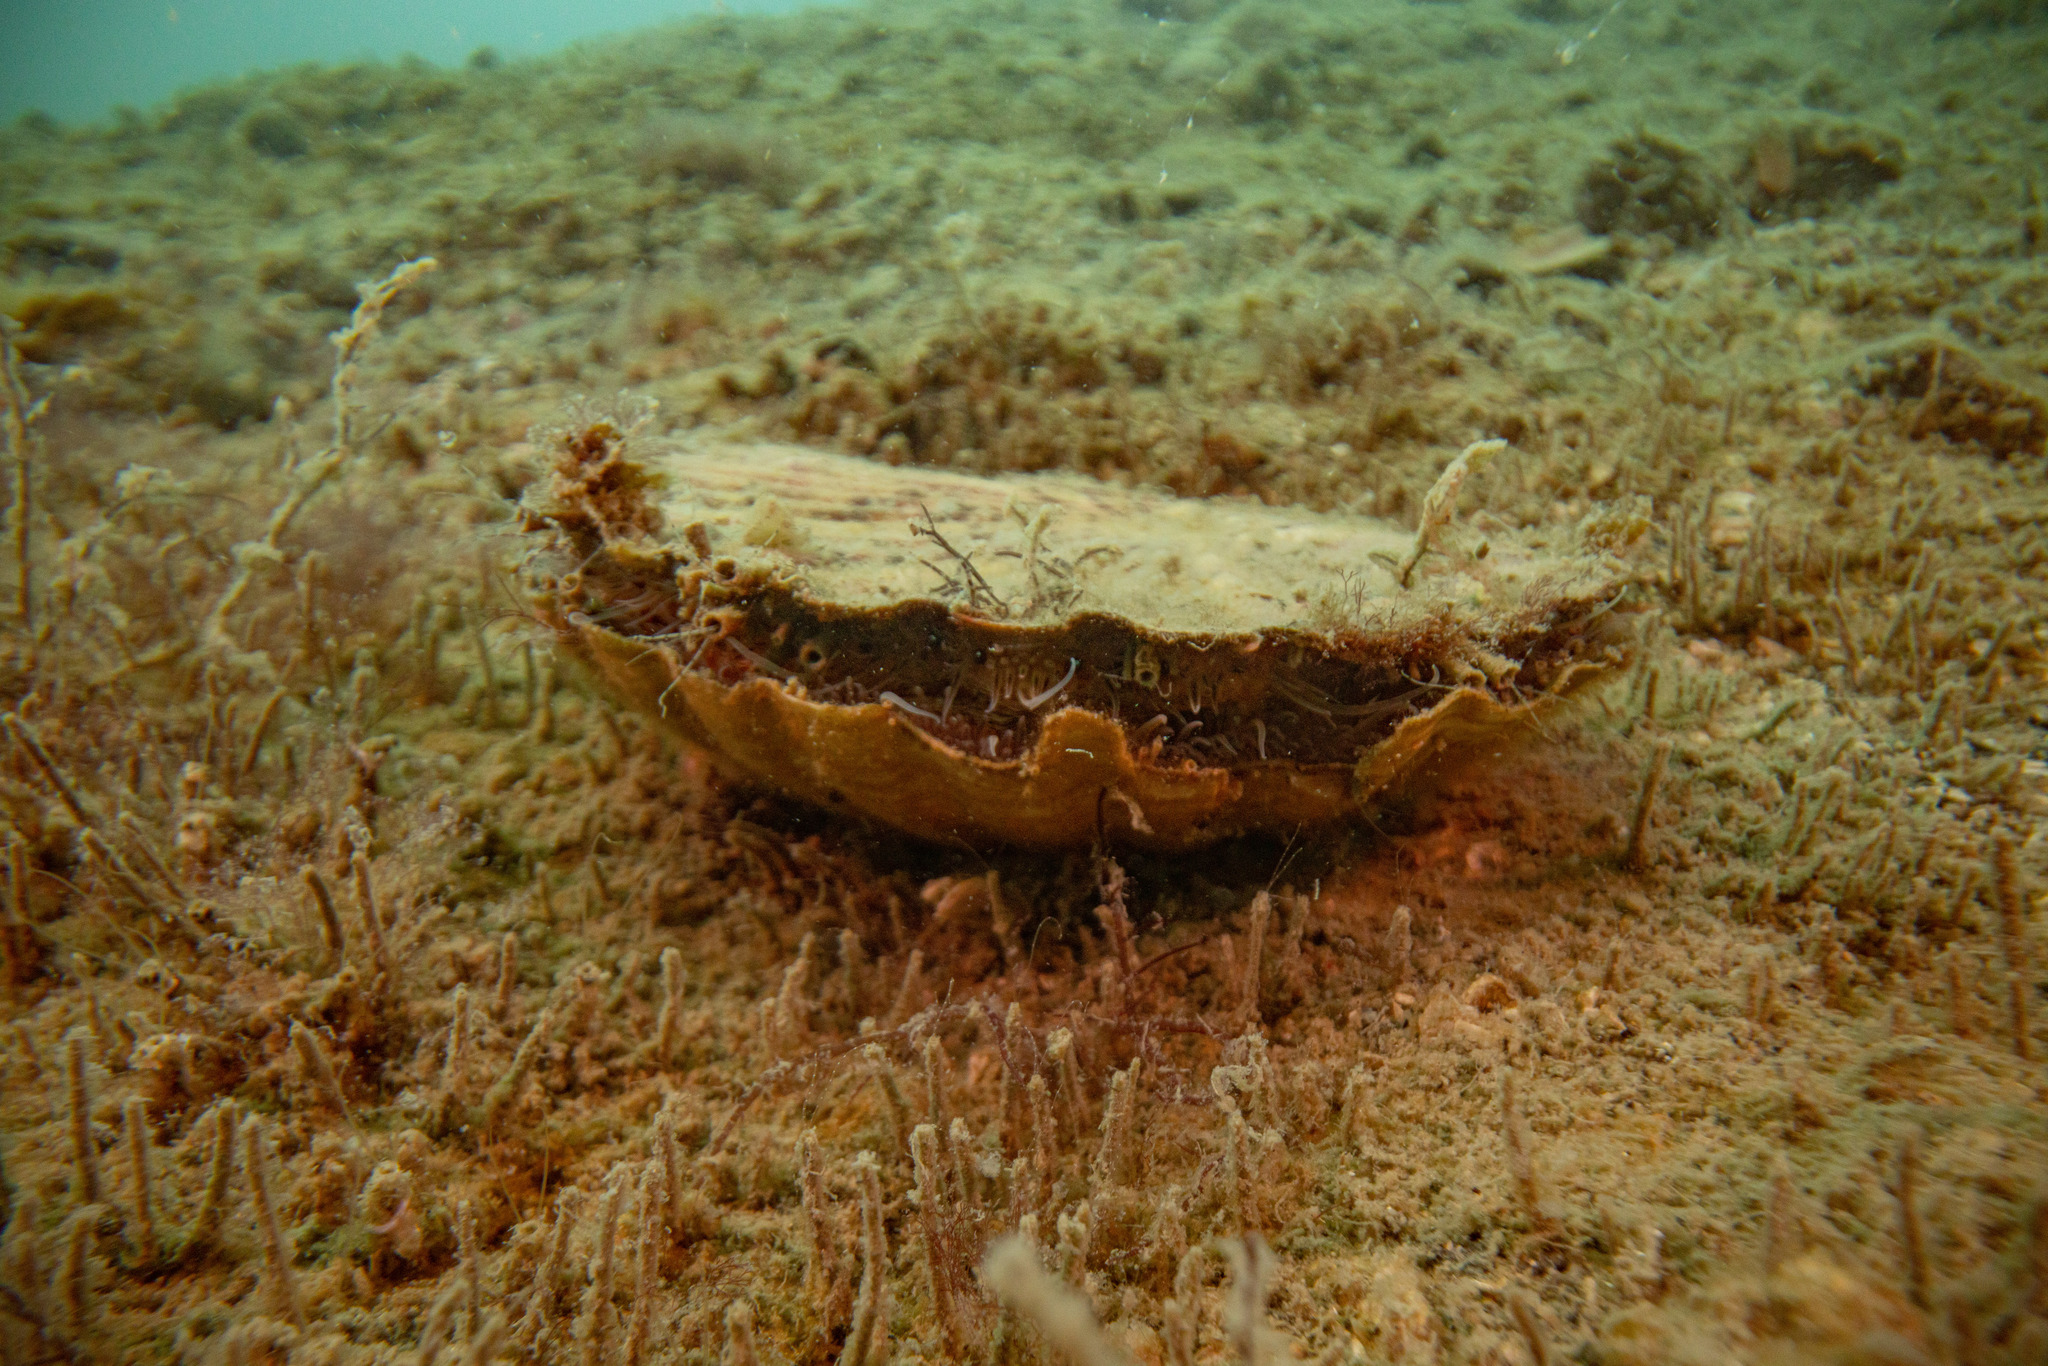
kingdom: Animalia
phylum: Mollusca
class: Bivalvia
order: Pectinida
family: Pectinidae
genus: Pecten
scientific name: Pecten novaezelandiae
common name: New zealand scallop
